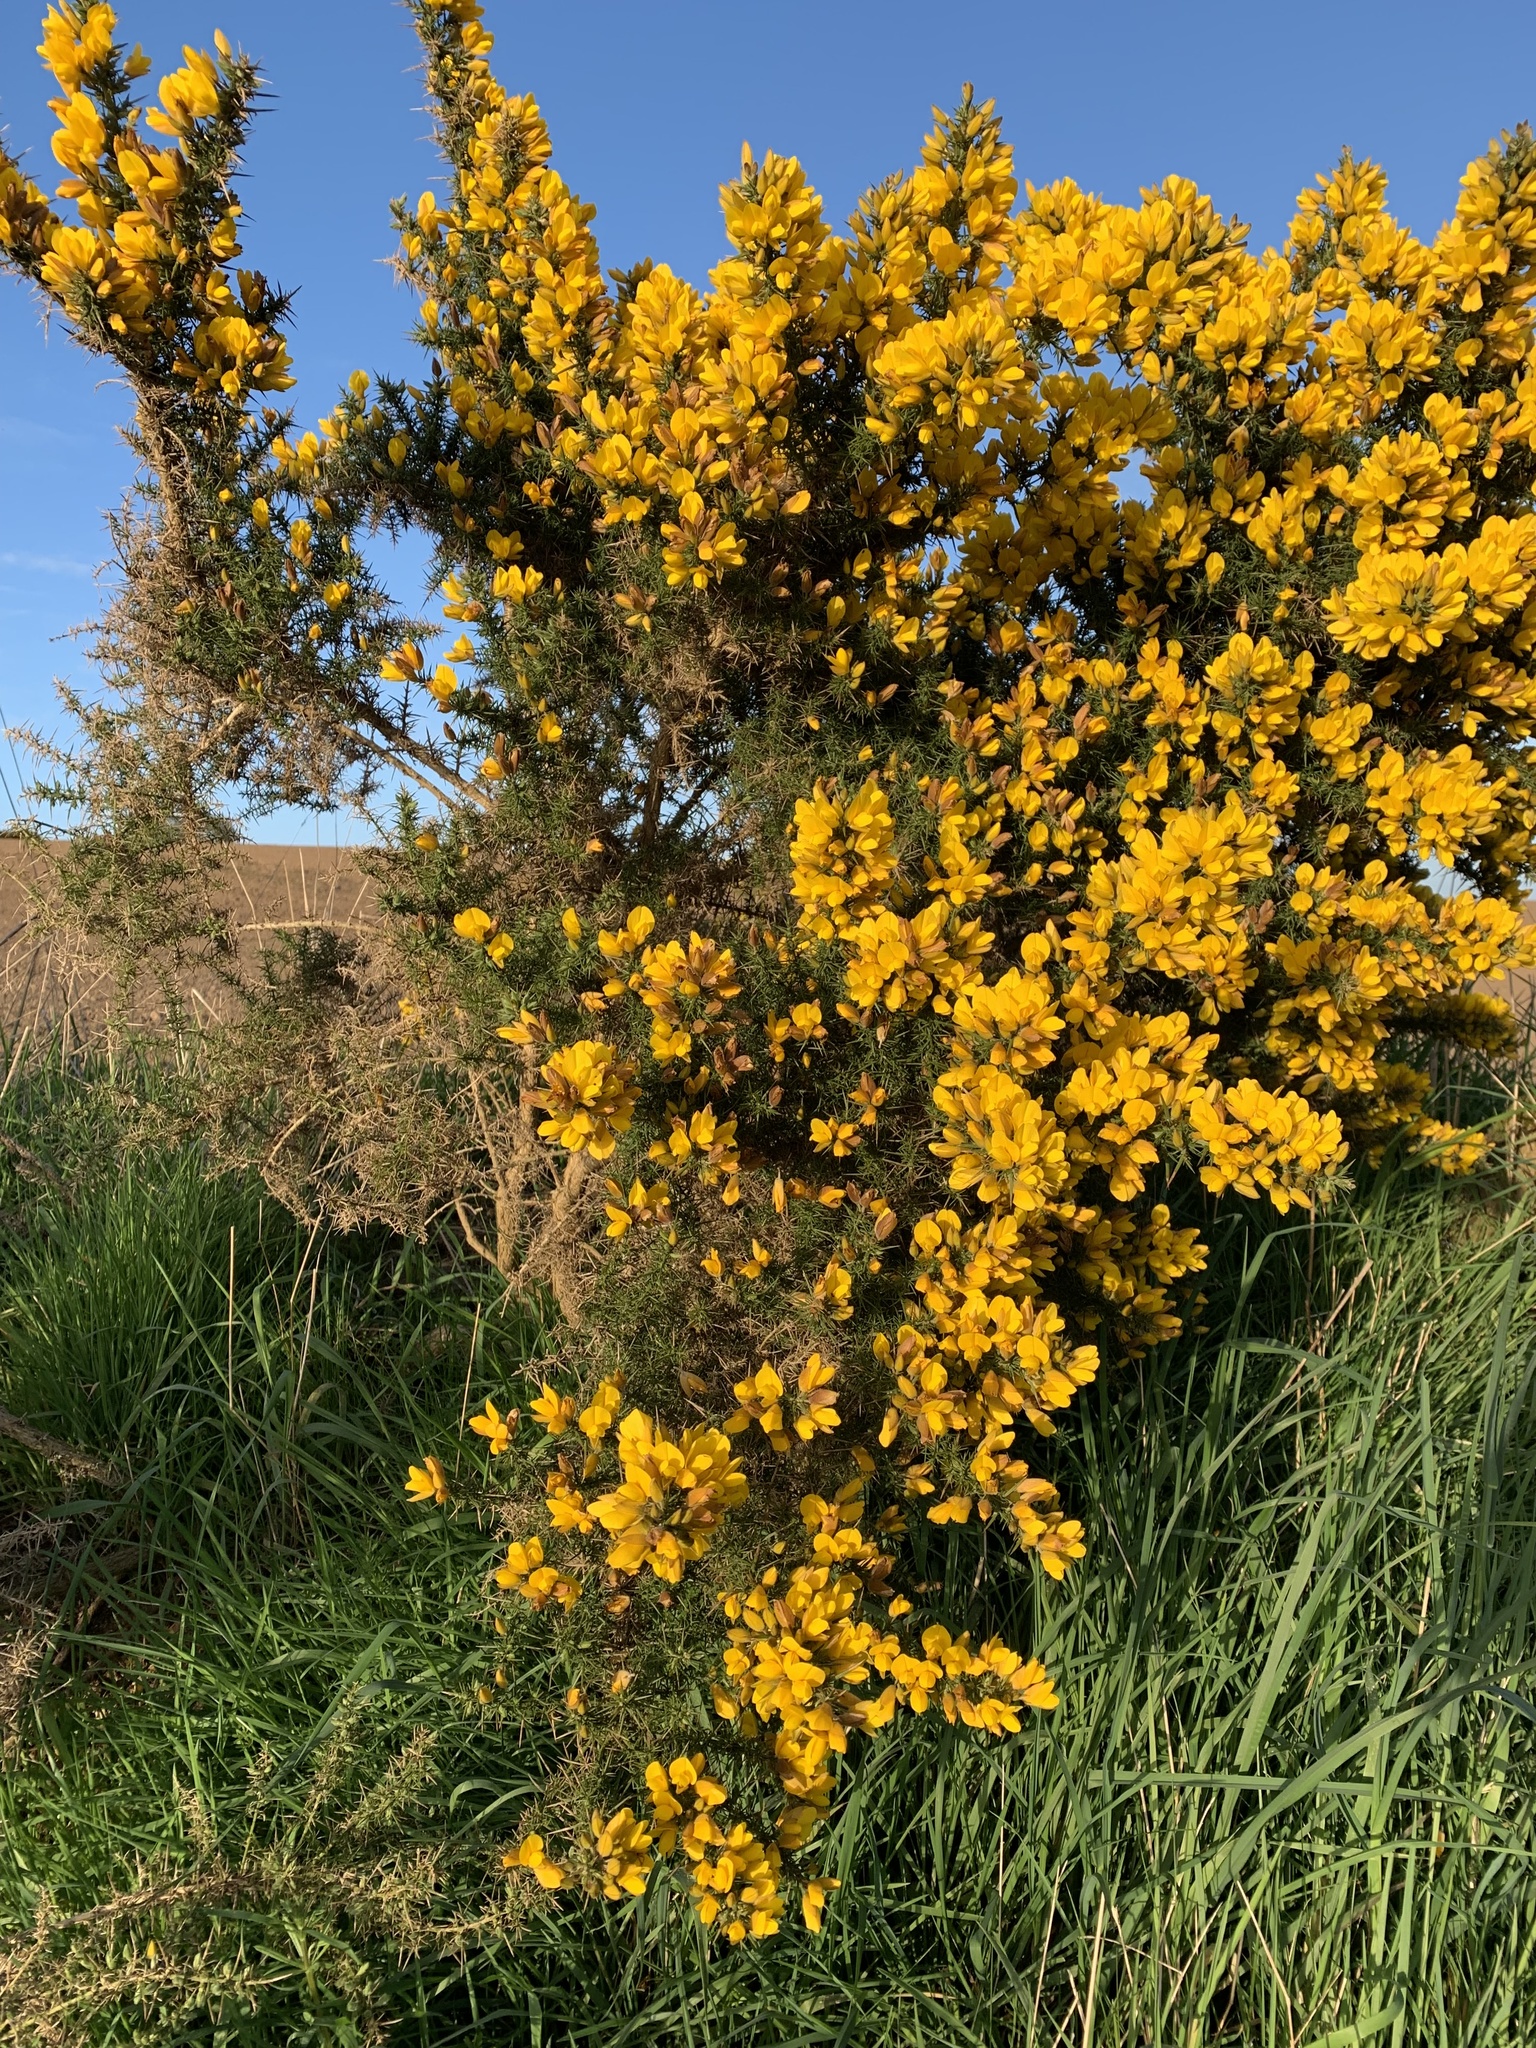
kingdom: Plantae
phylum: Tracheophyta
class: Magnoliopsida
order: Fabales
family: Fabaceae
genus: Ulex
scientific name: Ulex europaeus
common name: Common gorse
